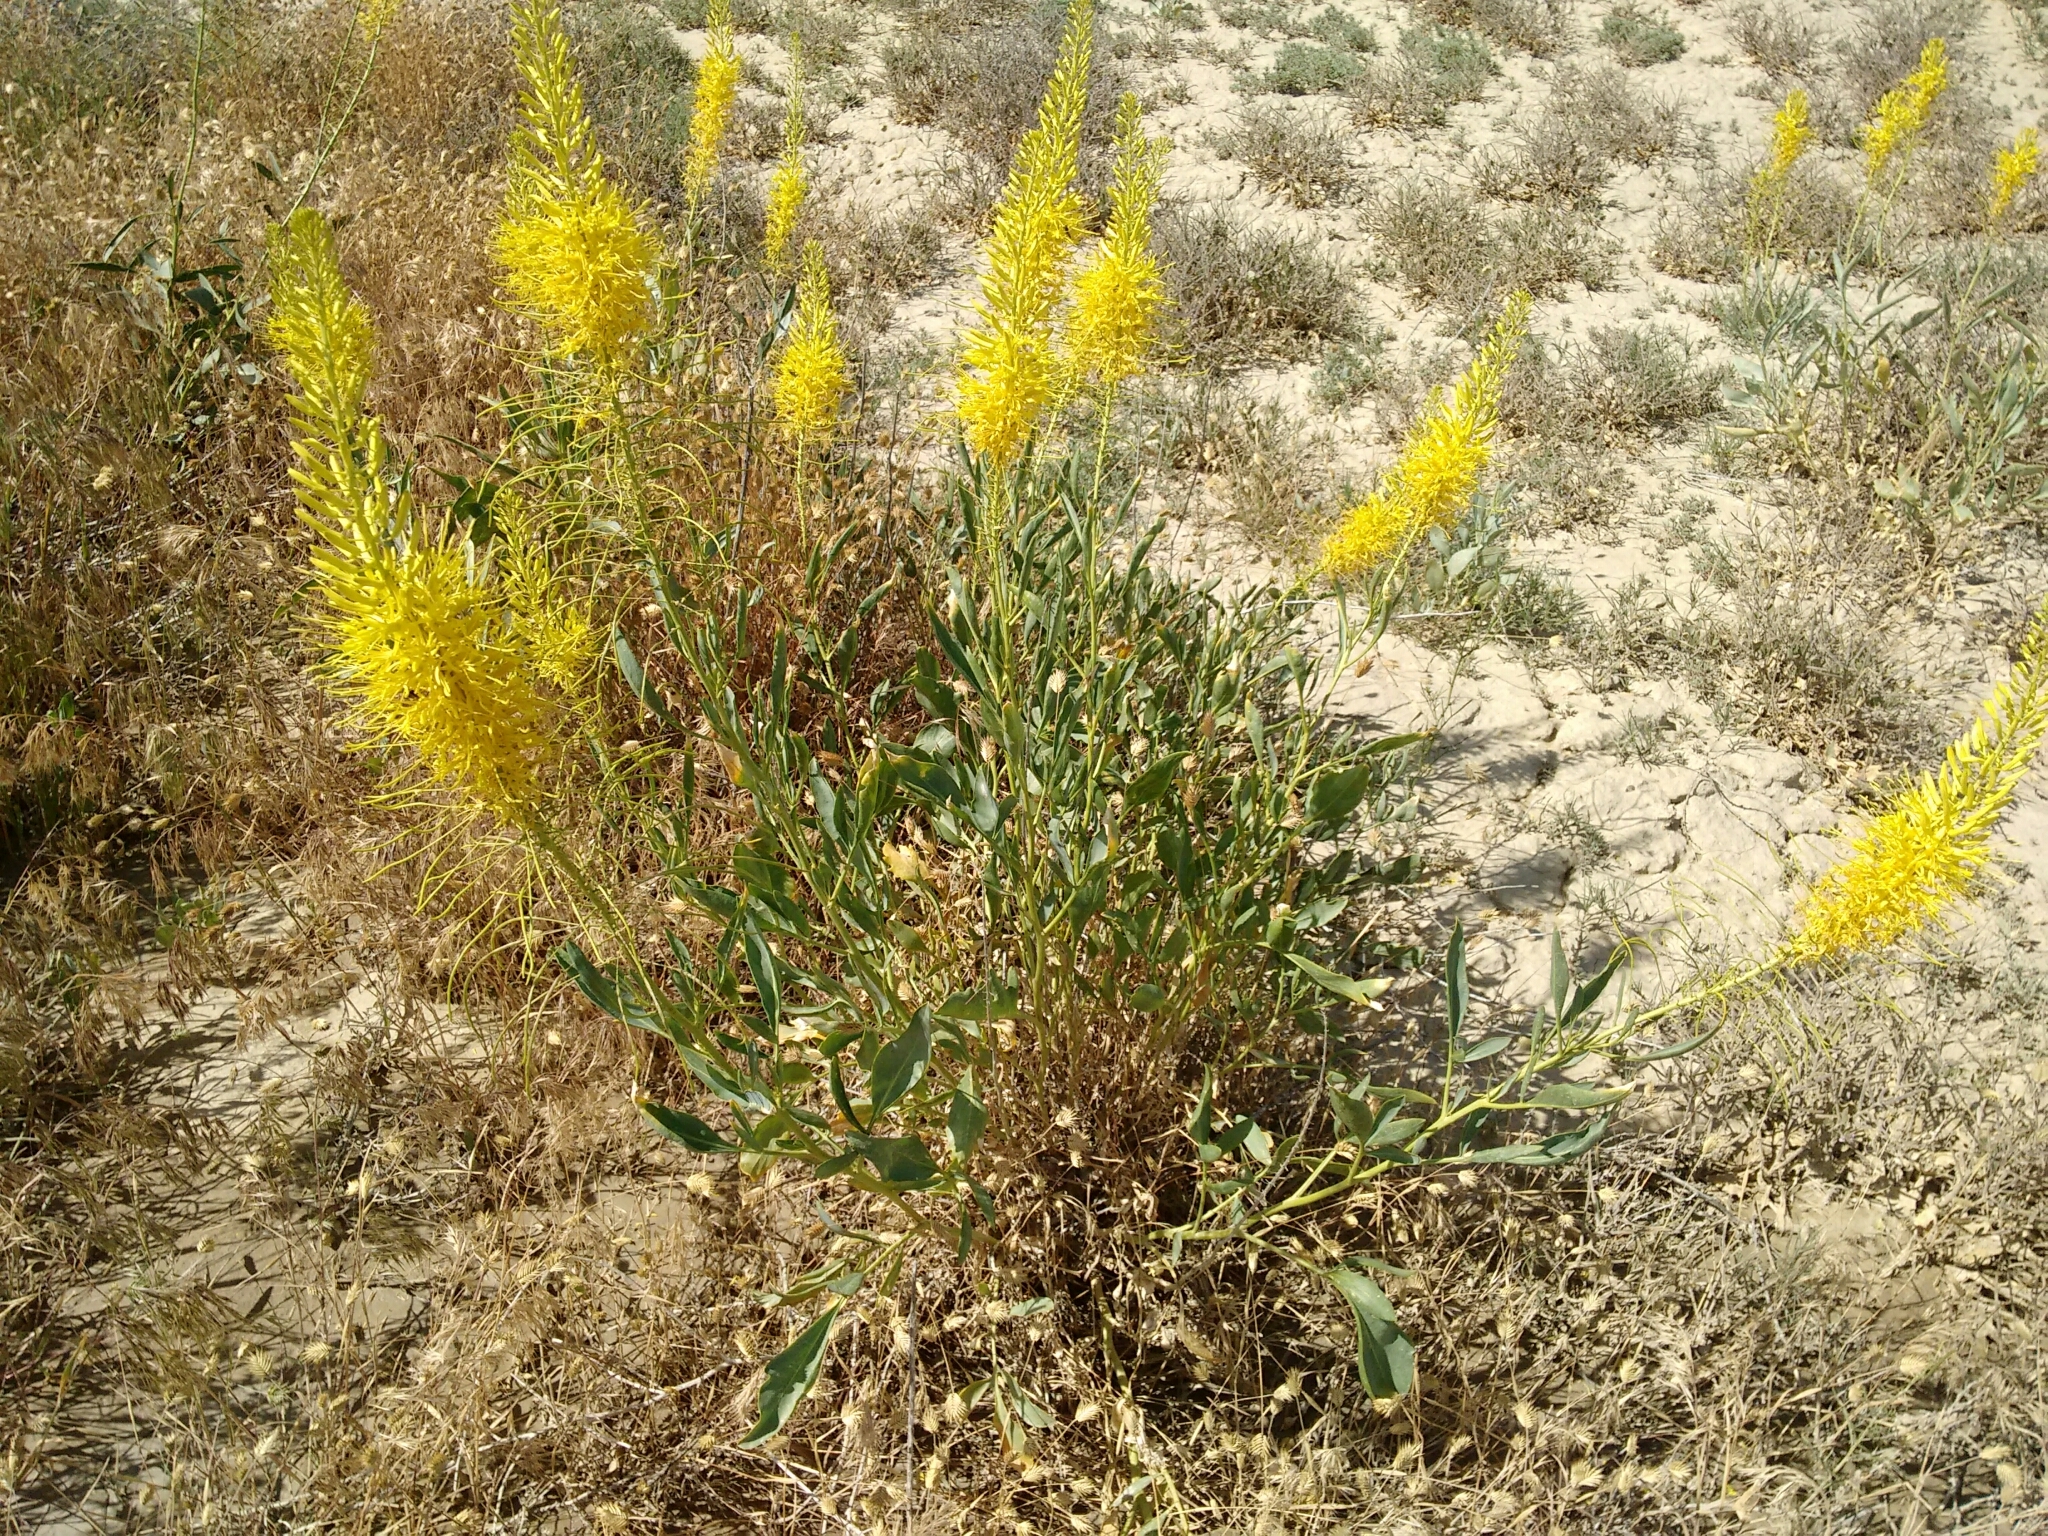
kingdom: Plantae
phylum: Tracheophyta
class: Magnoliopsida
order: Brassicales
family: Brassicaceae
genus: Stanleya
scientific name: Stanleya pinnata
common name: Prince's-plume
